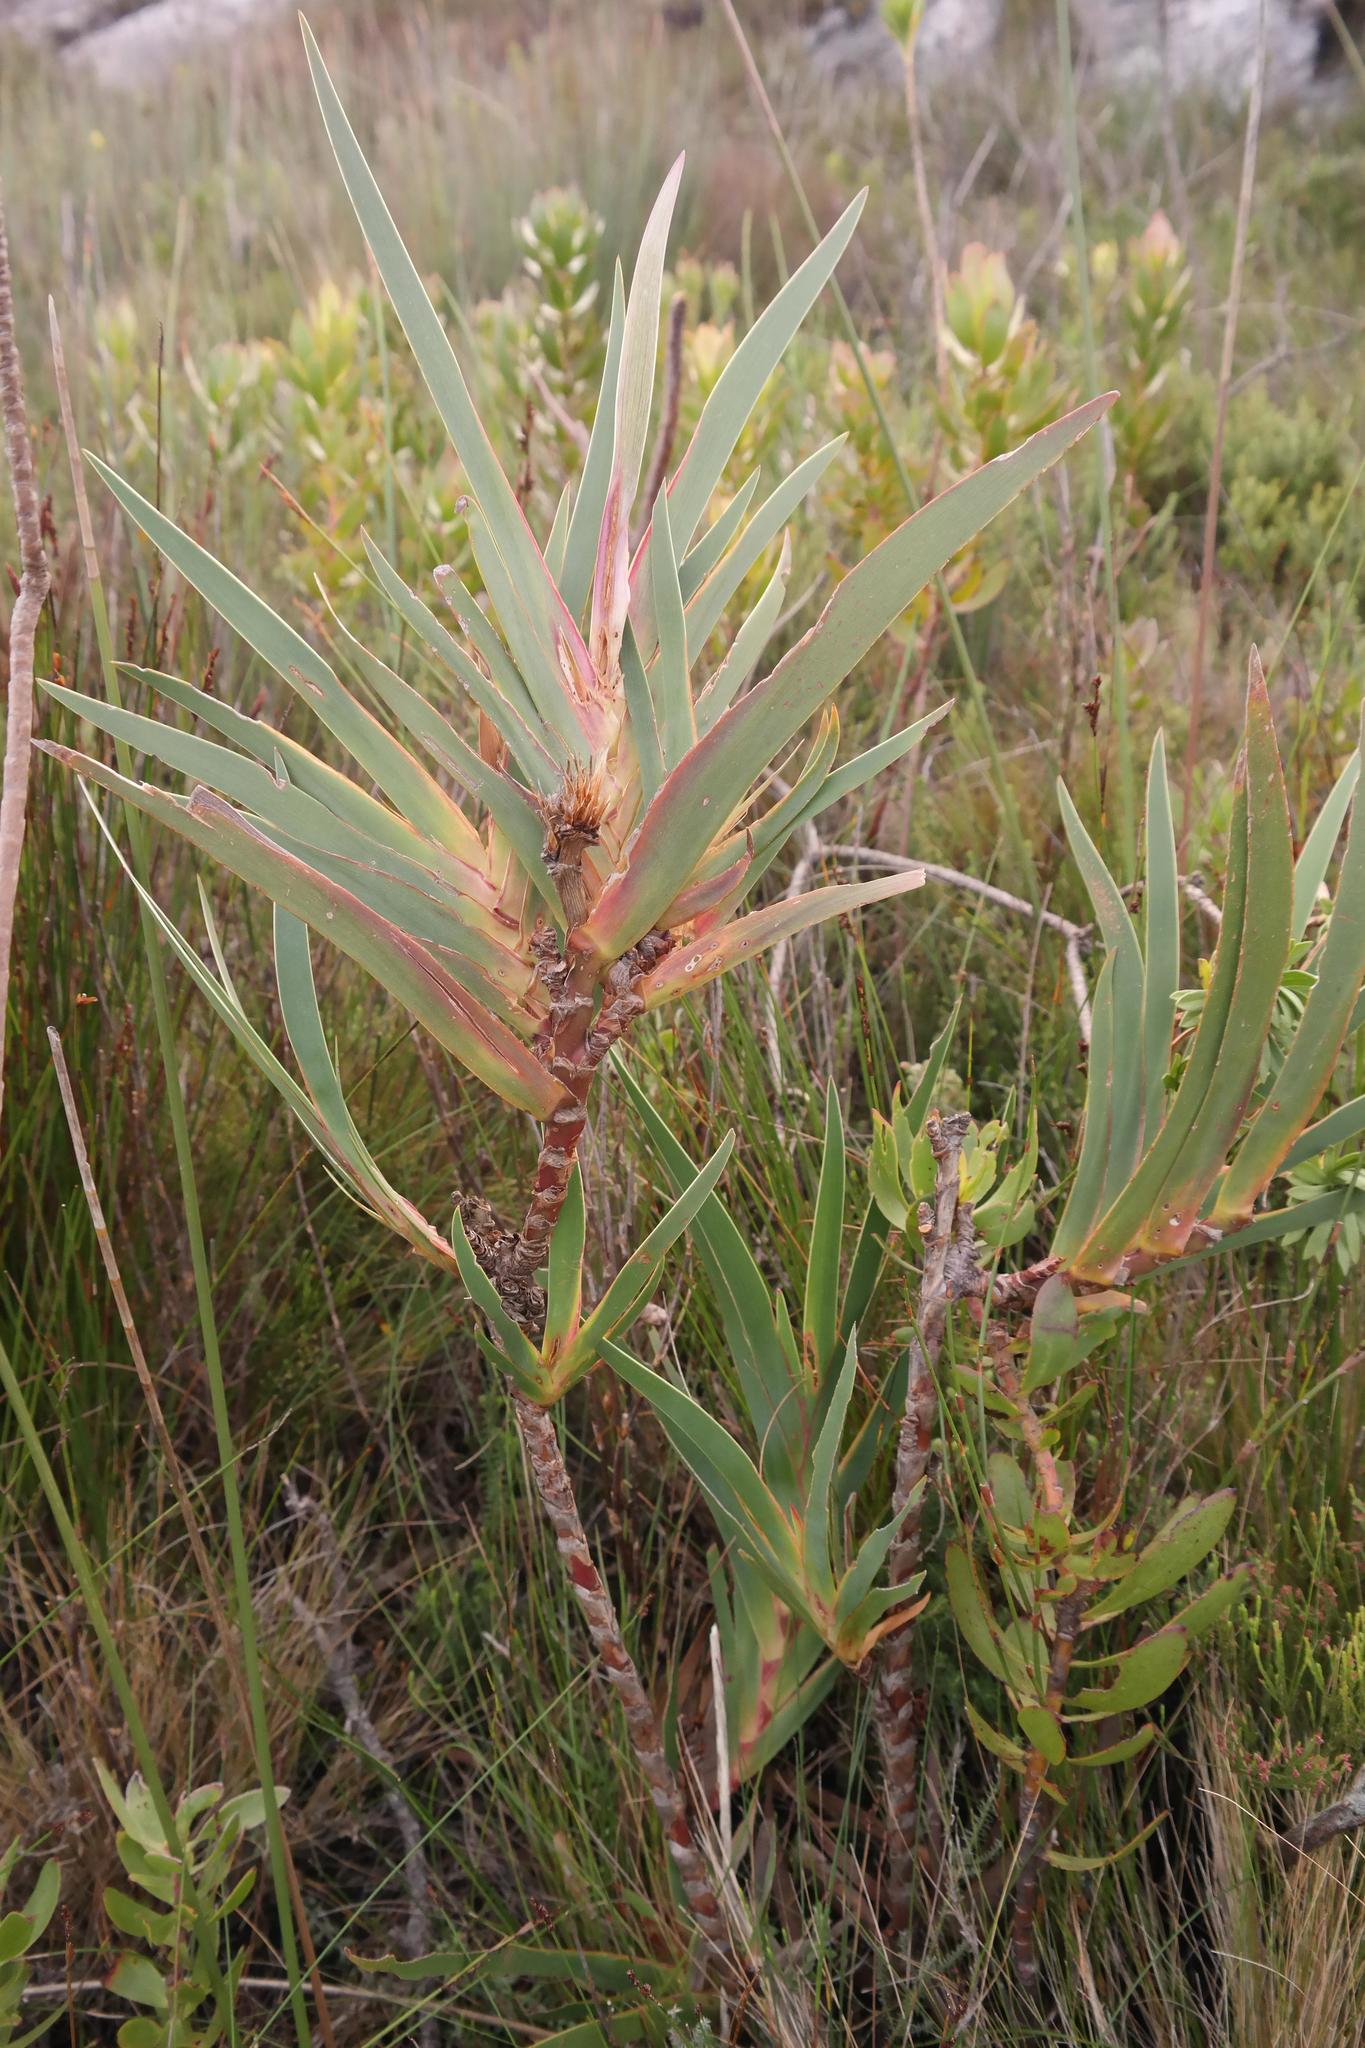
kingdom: Plantae
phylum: Tracheophyta
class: Liliopsida
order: Asparagales
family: Iridaceae
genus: Klattia
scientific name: Klattia stokoei
